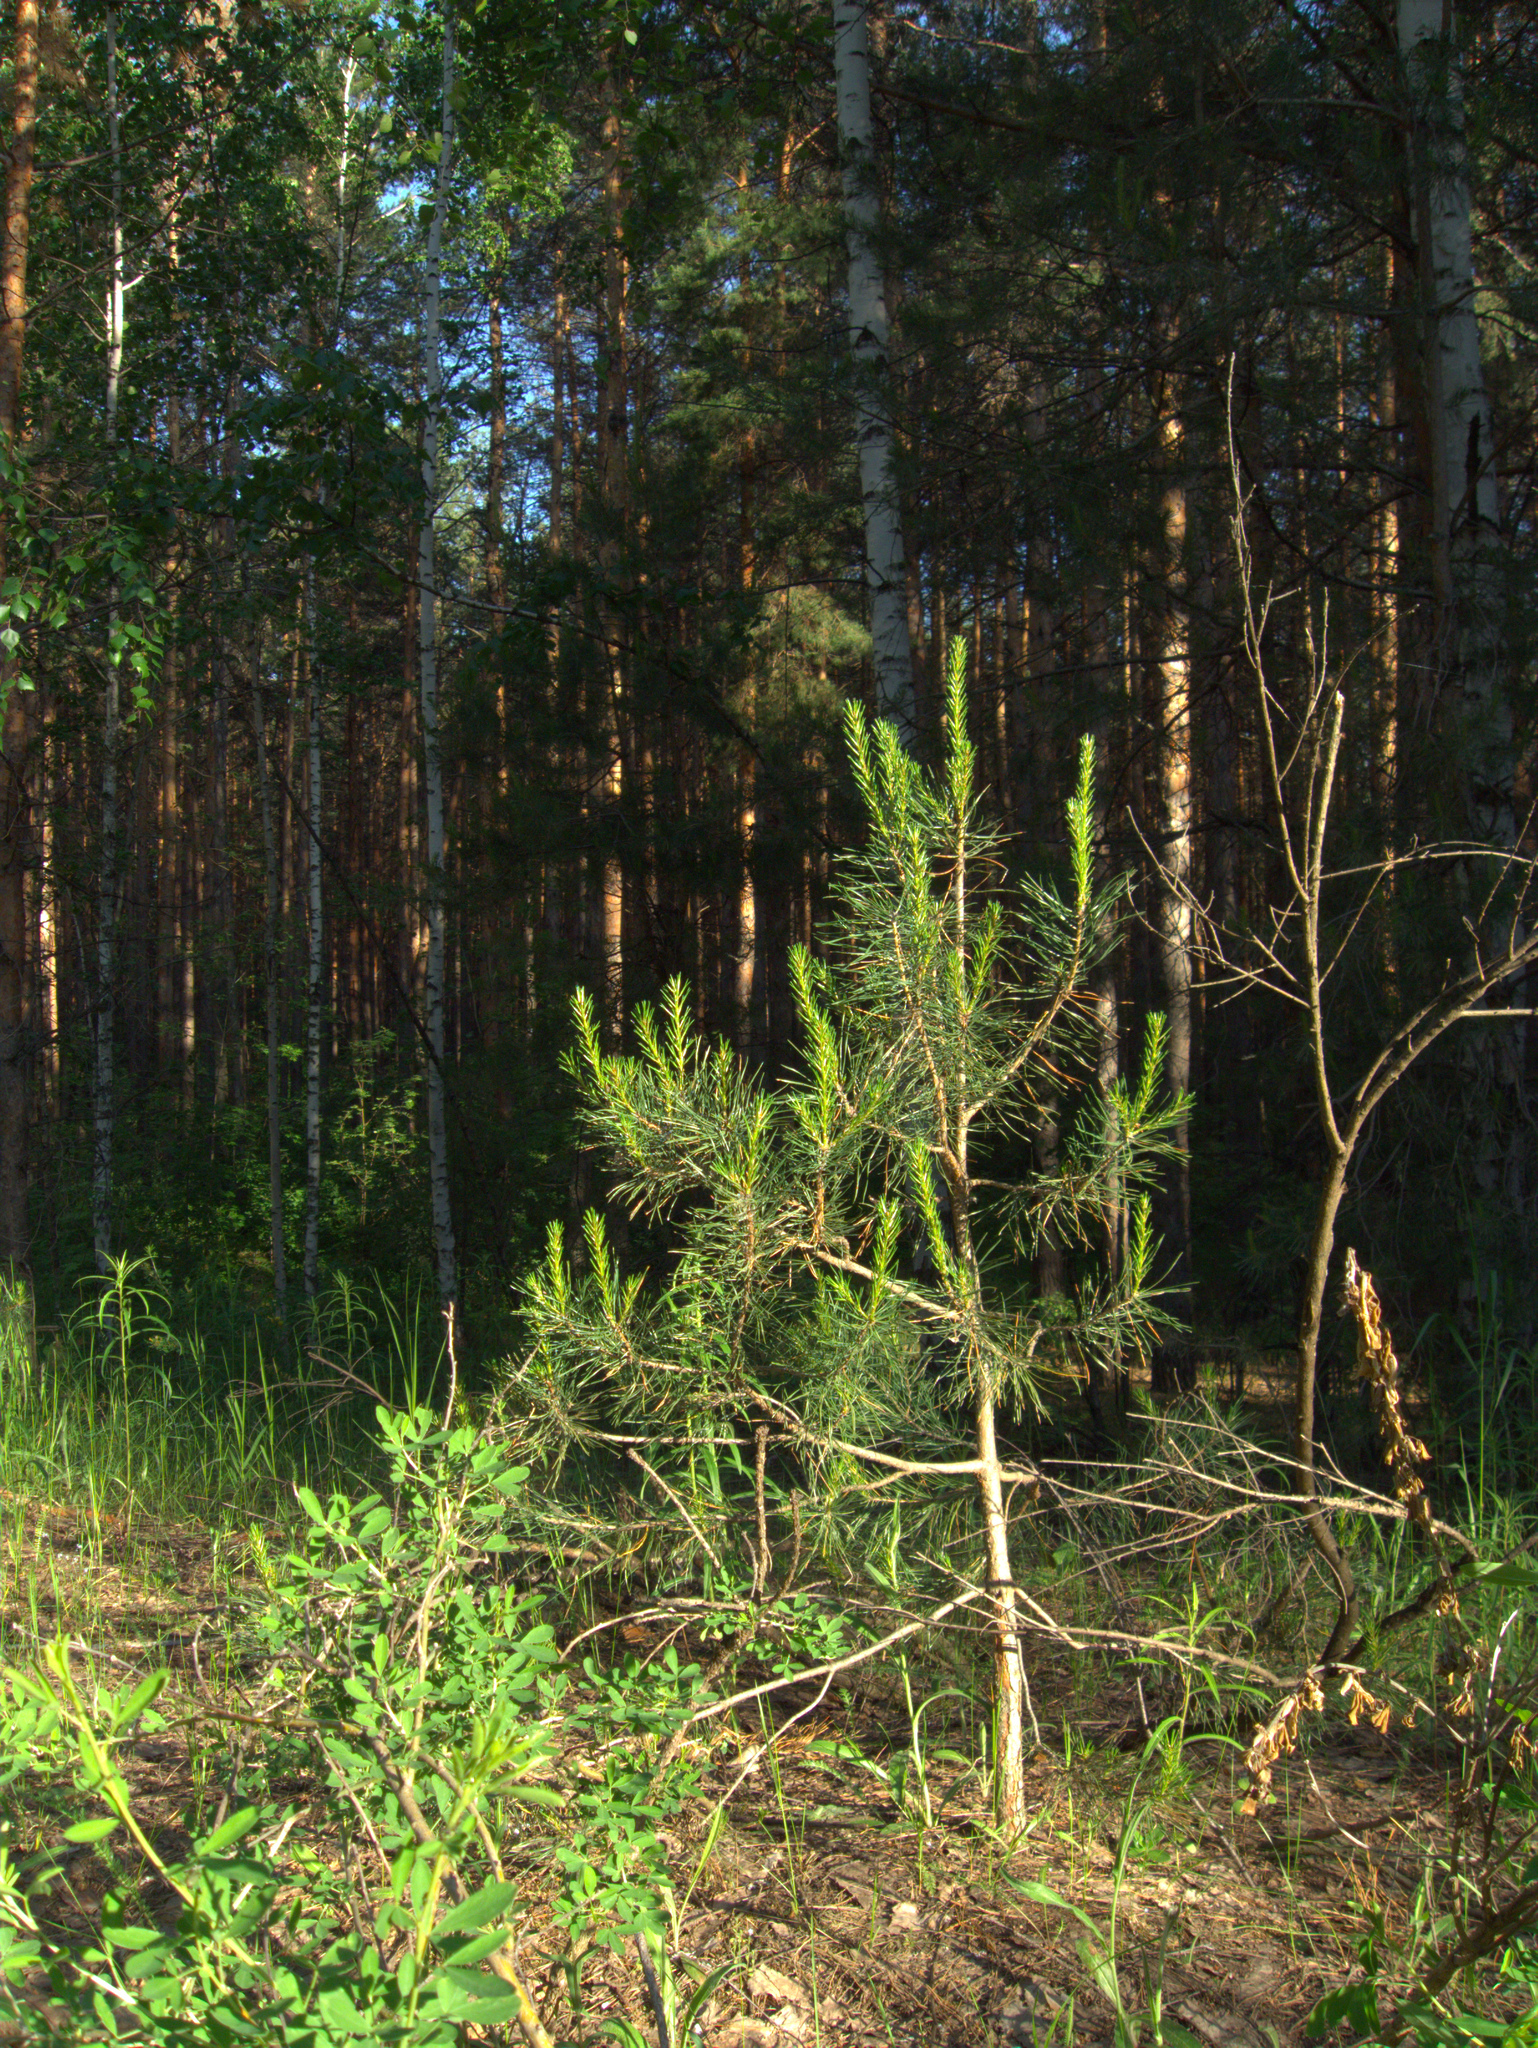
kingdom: Plantae
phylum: Tracheophyta
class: Magnoliopsida
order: Fabales
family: Fabaceae
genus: Chamaecytisus
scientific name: Chamaecytisus ruthenicus
